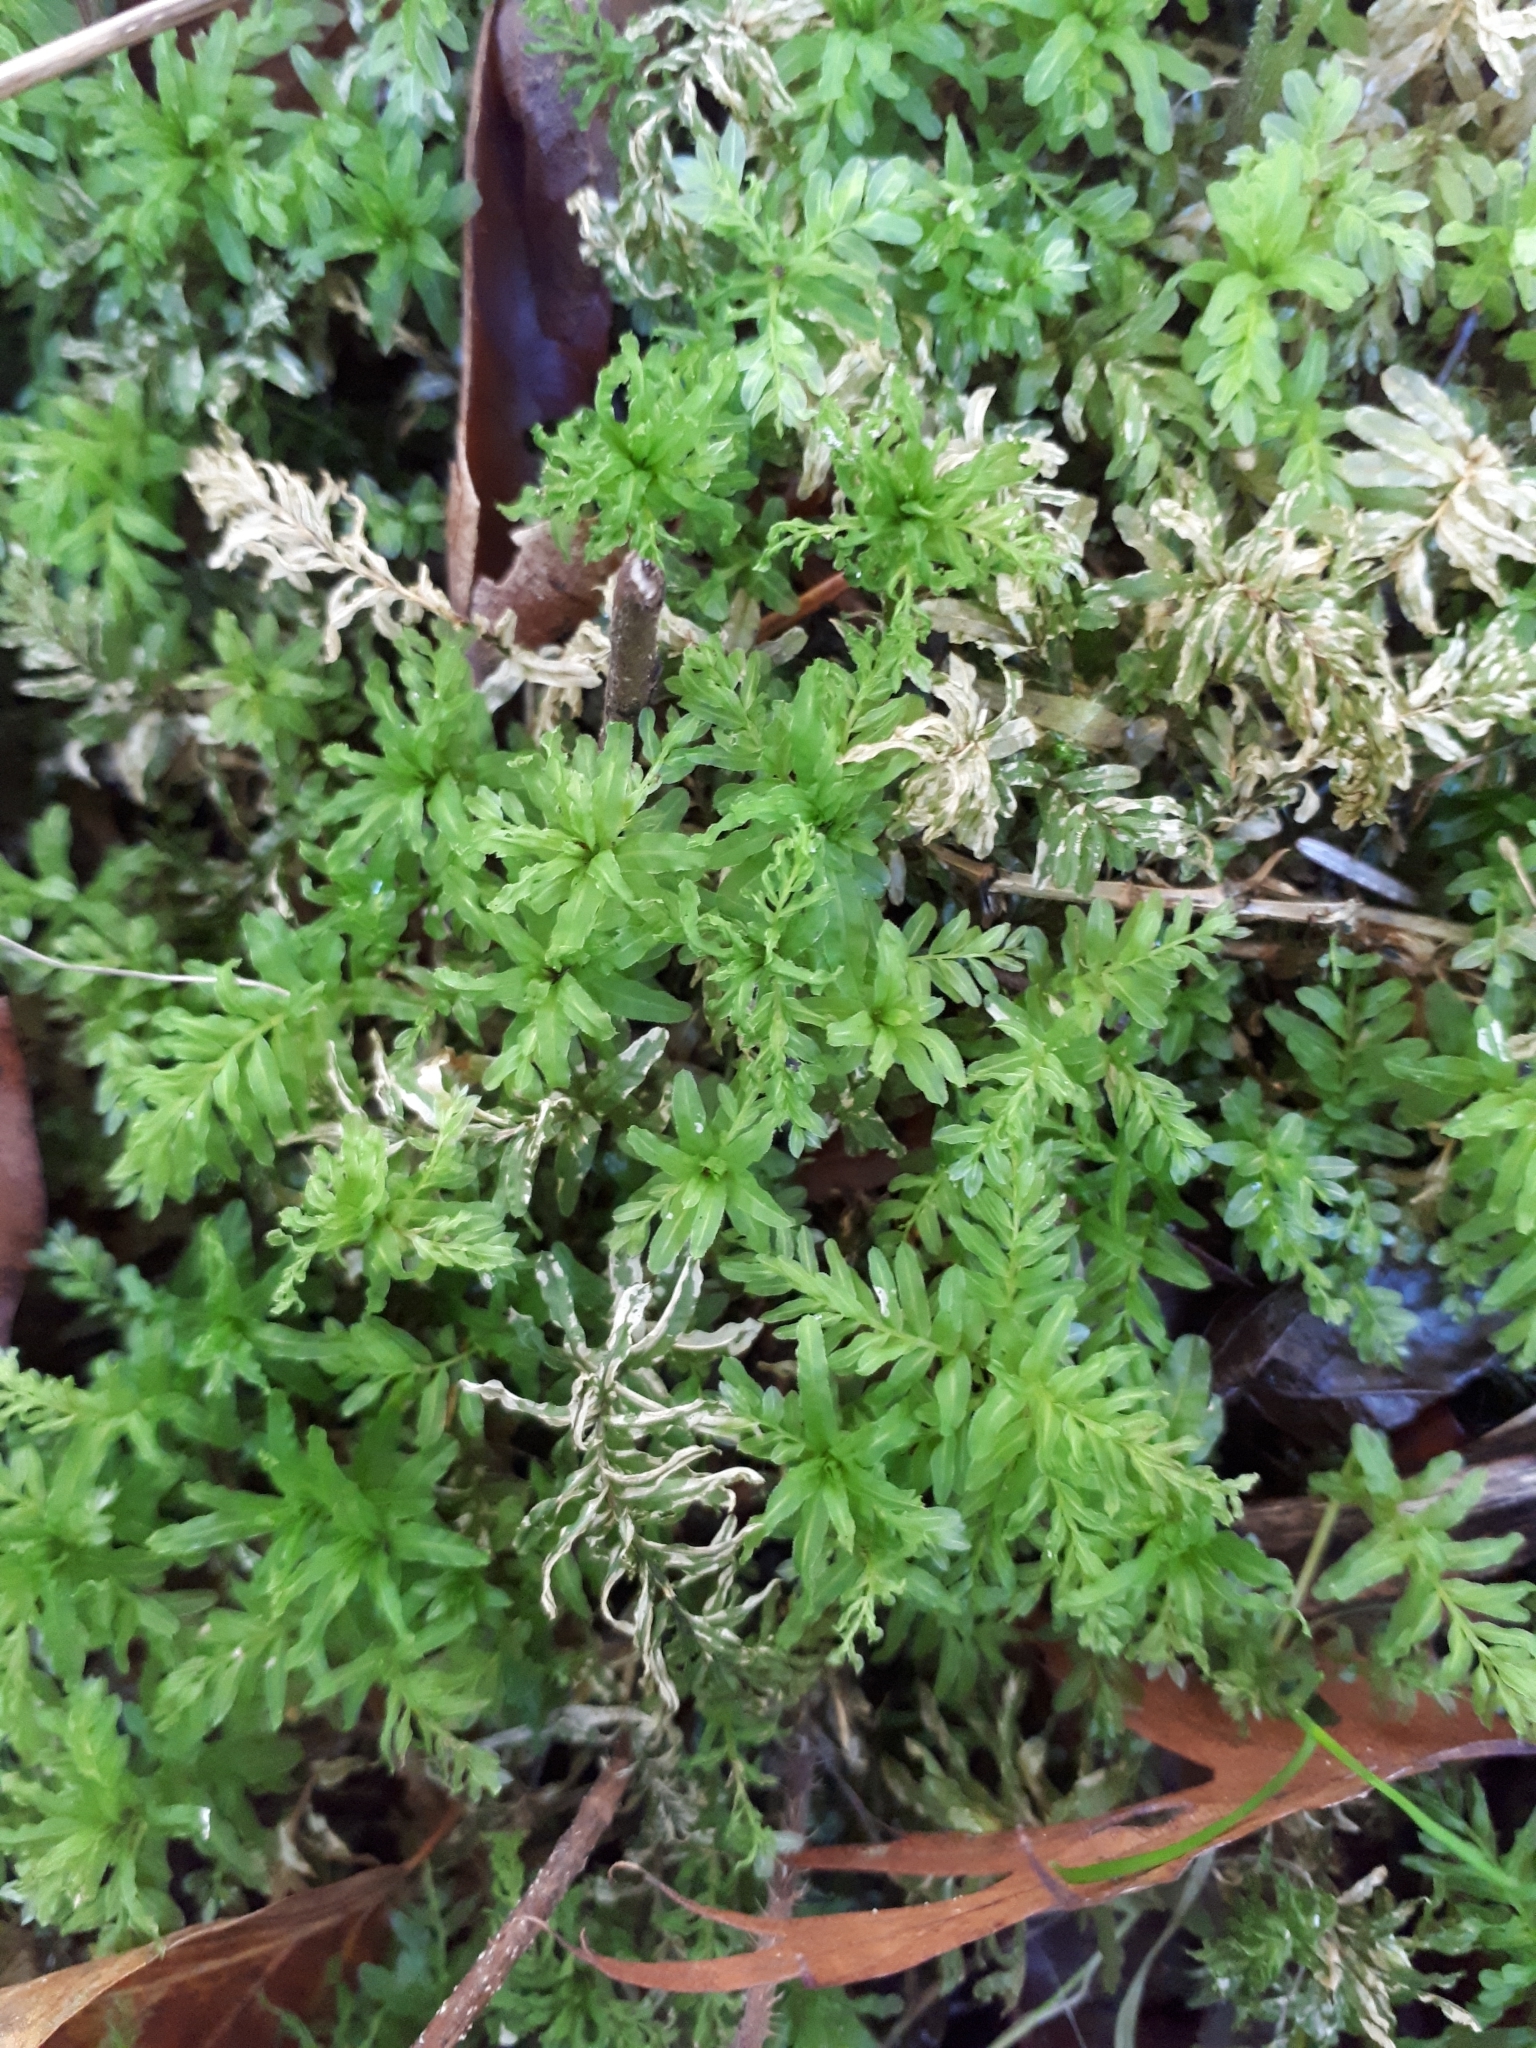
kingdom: Plantae
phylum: Bryophyta
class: Bryopsida
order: Bryales
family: Mniaceae
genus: Plagiomnium
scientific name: Plagiomnium undulatum
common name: Hart's-tongue thyme-moss
